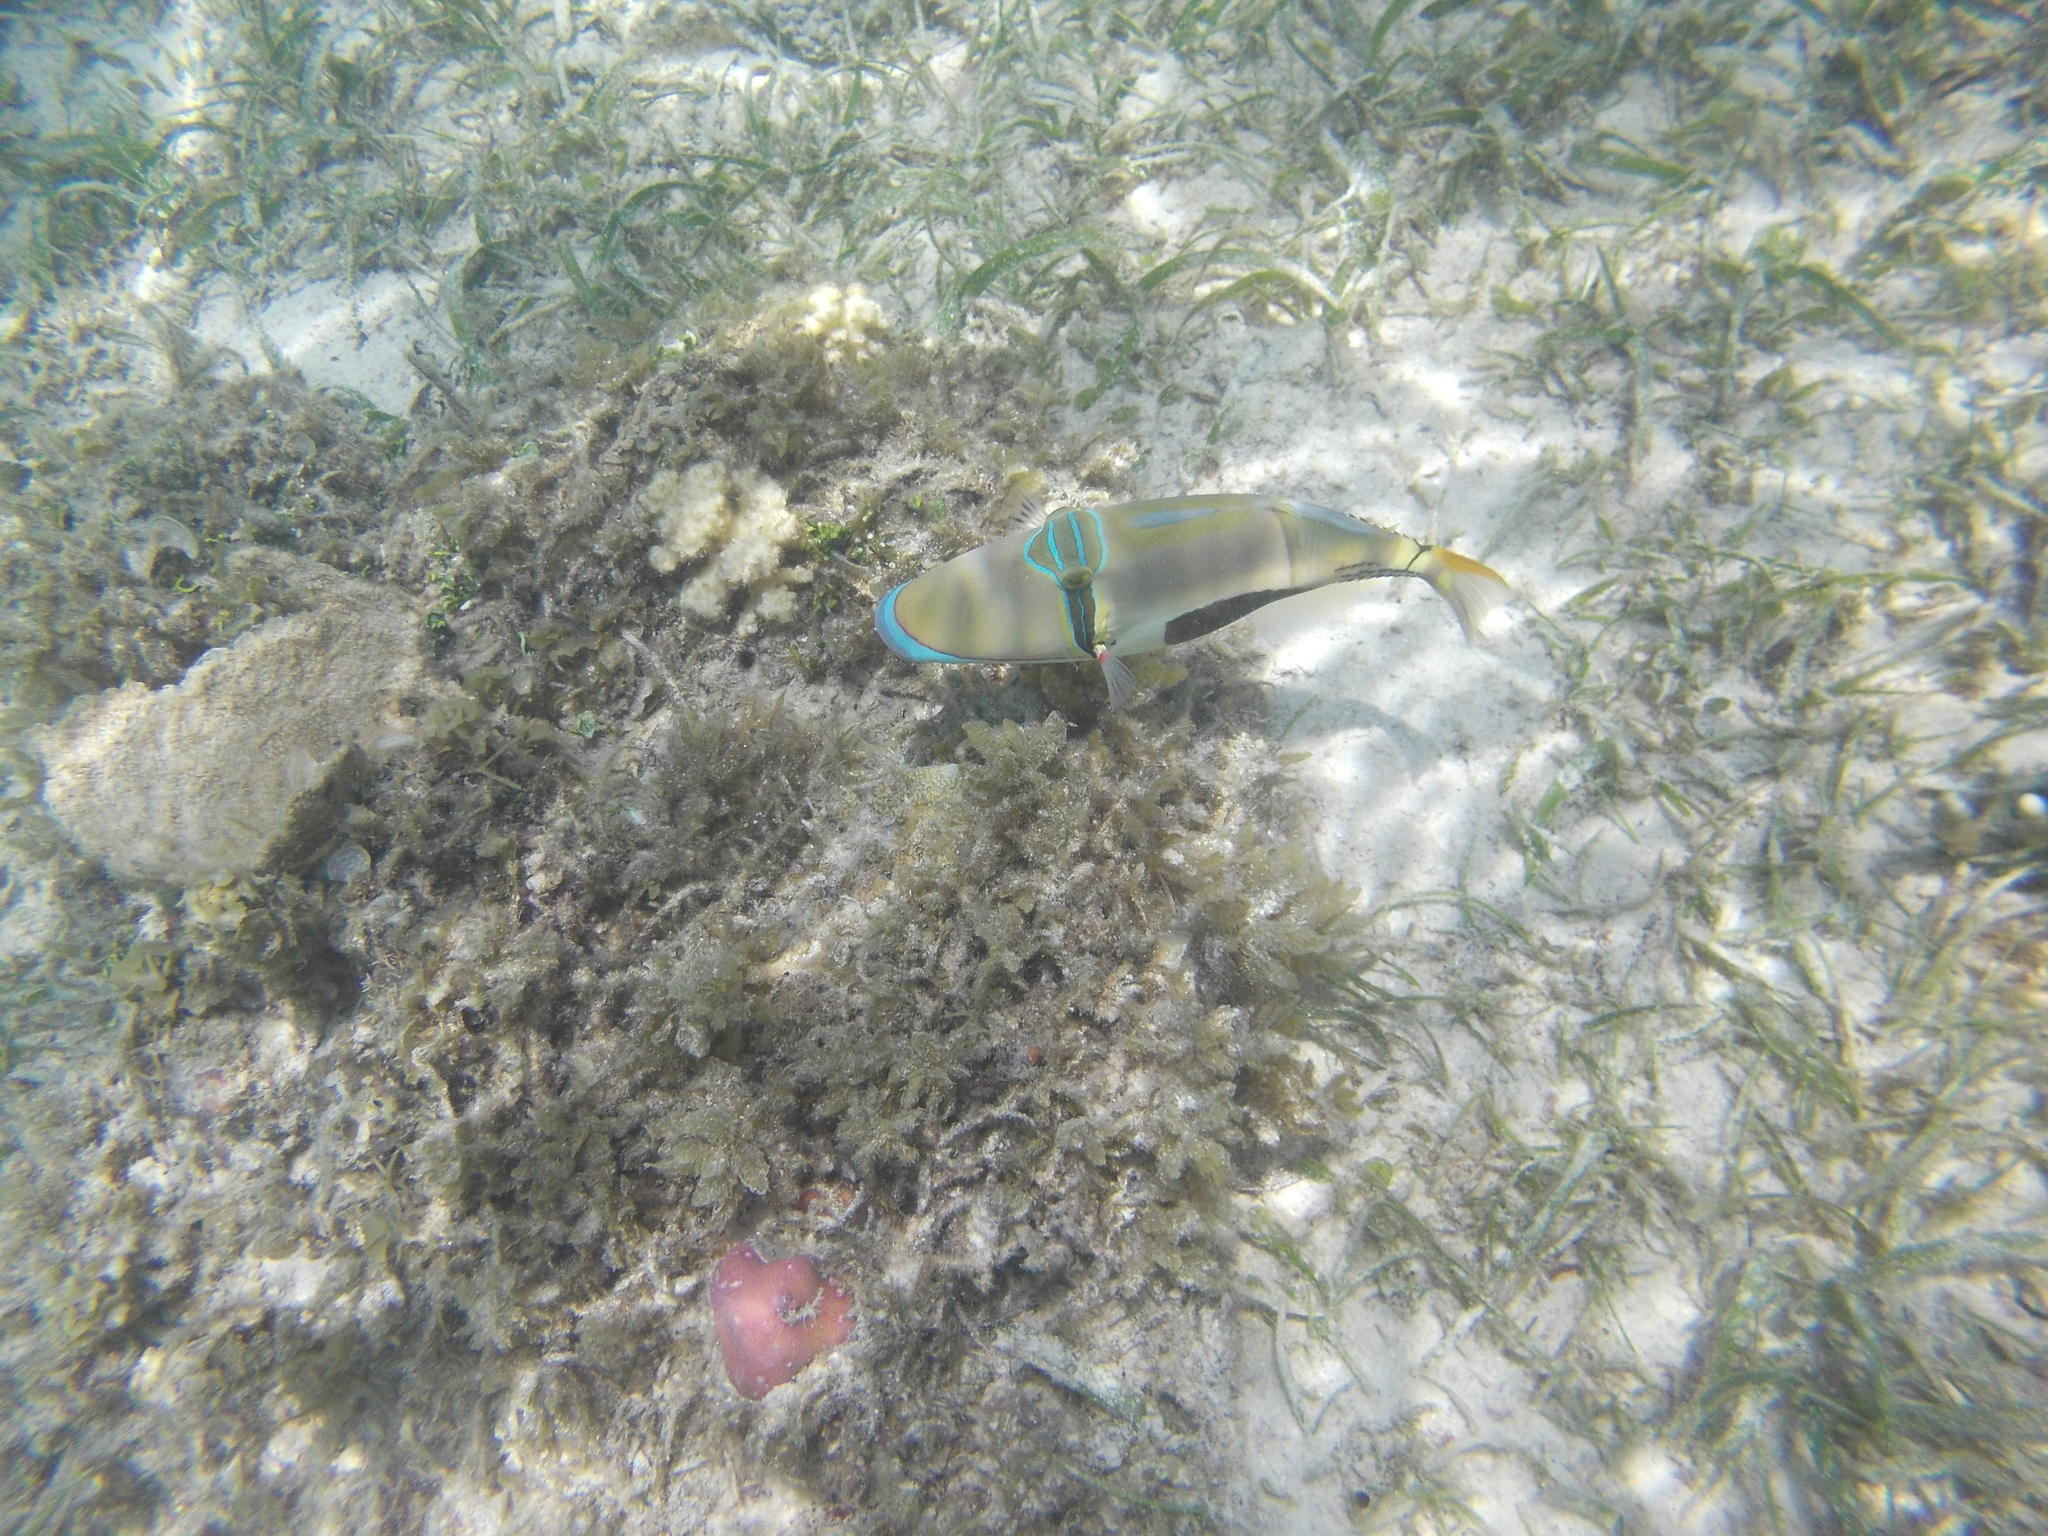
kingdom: Animalia
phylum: Chordata
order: Tetraodontiformes
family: Balistidae
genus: Rhinecanthus
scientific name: Rhinecanthus verrucosus
